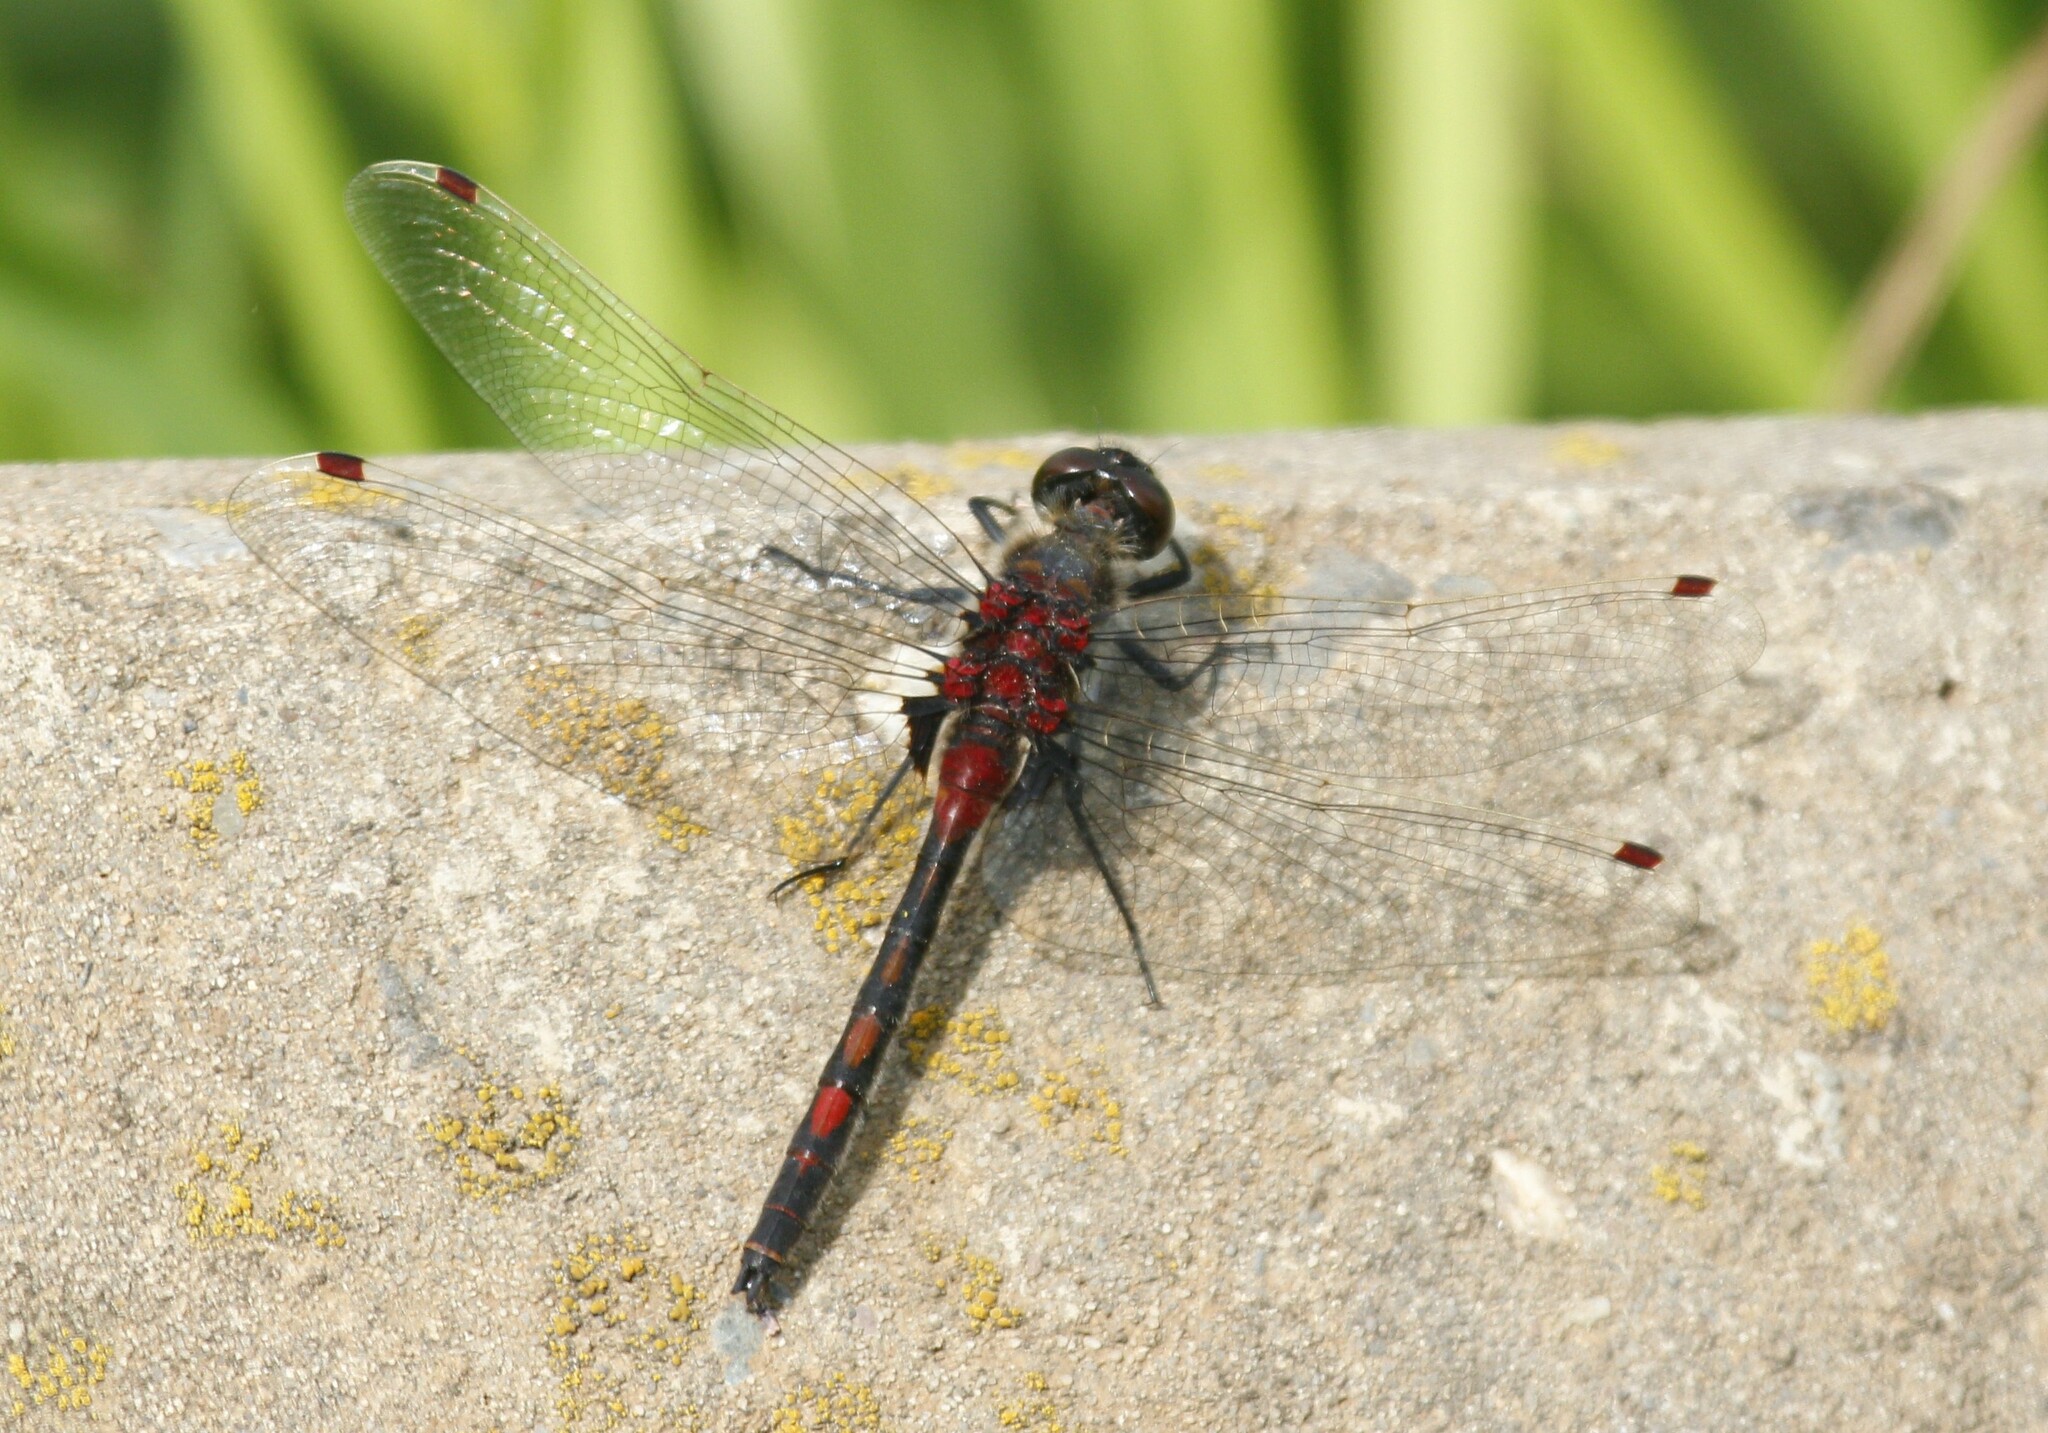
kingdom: Animalia
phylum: Arthropoda
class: Insecta
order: Odonata
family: Libellulidae
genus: Leucorrhinia
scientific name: Leucorrhinia rubicunda
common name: Ruby whiteface
